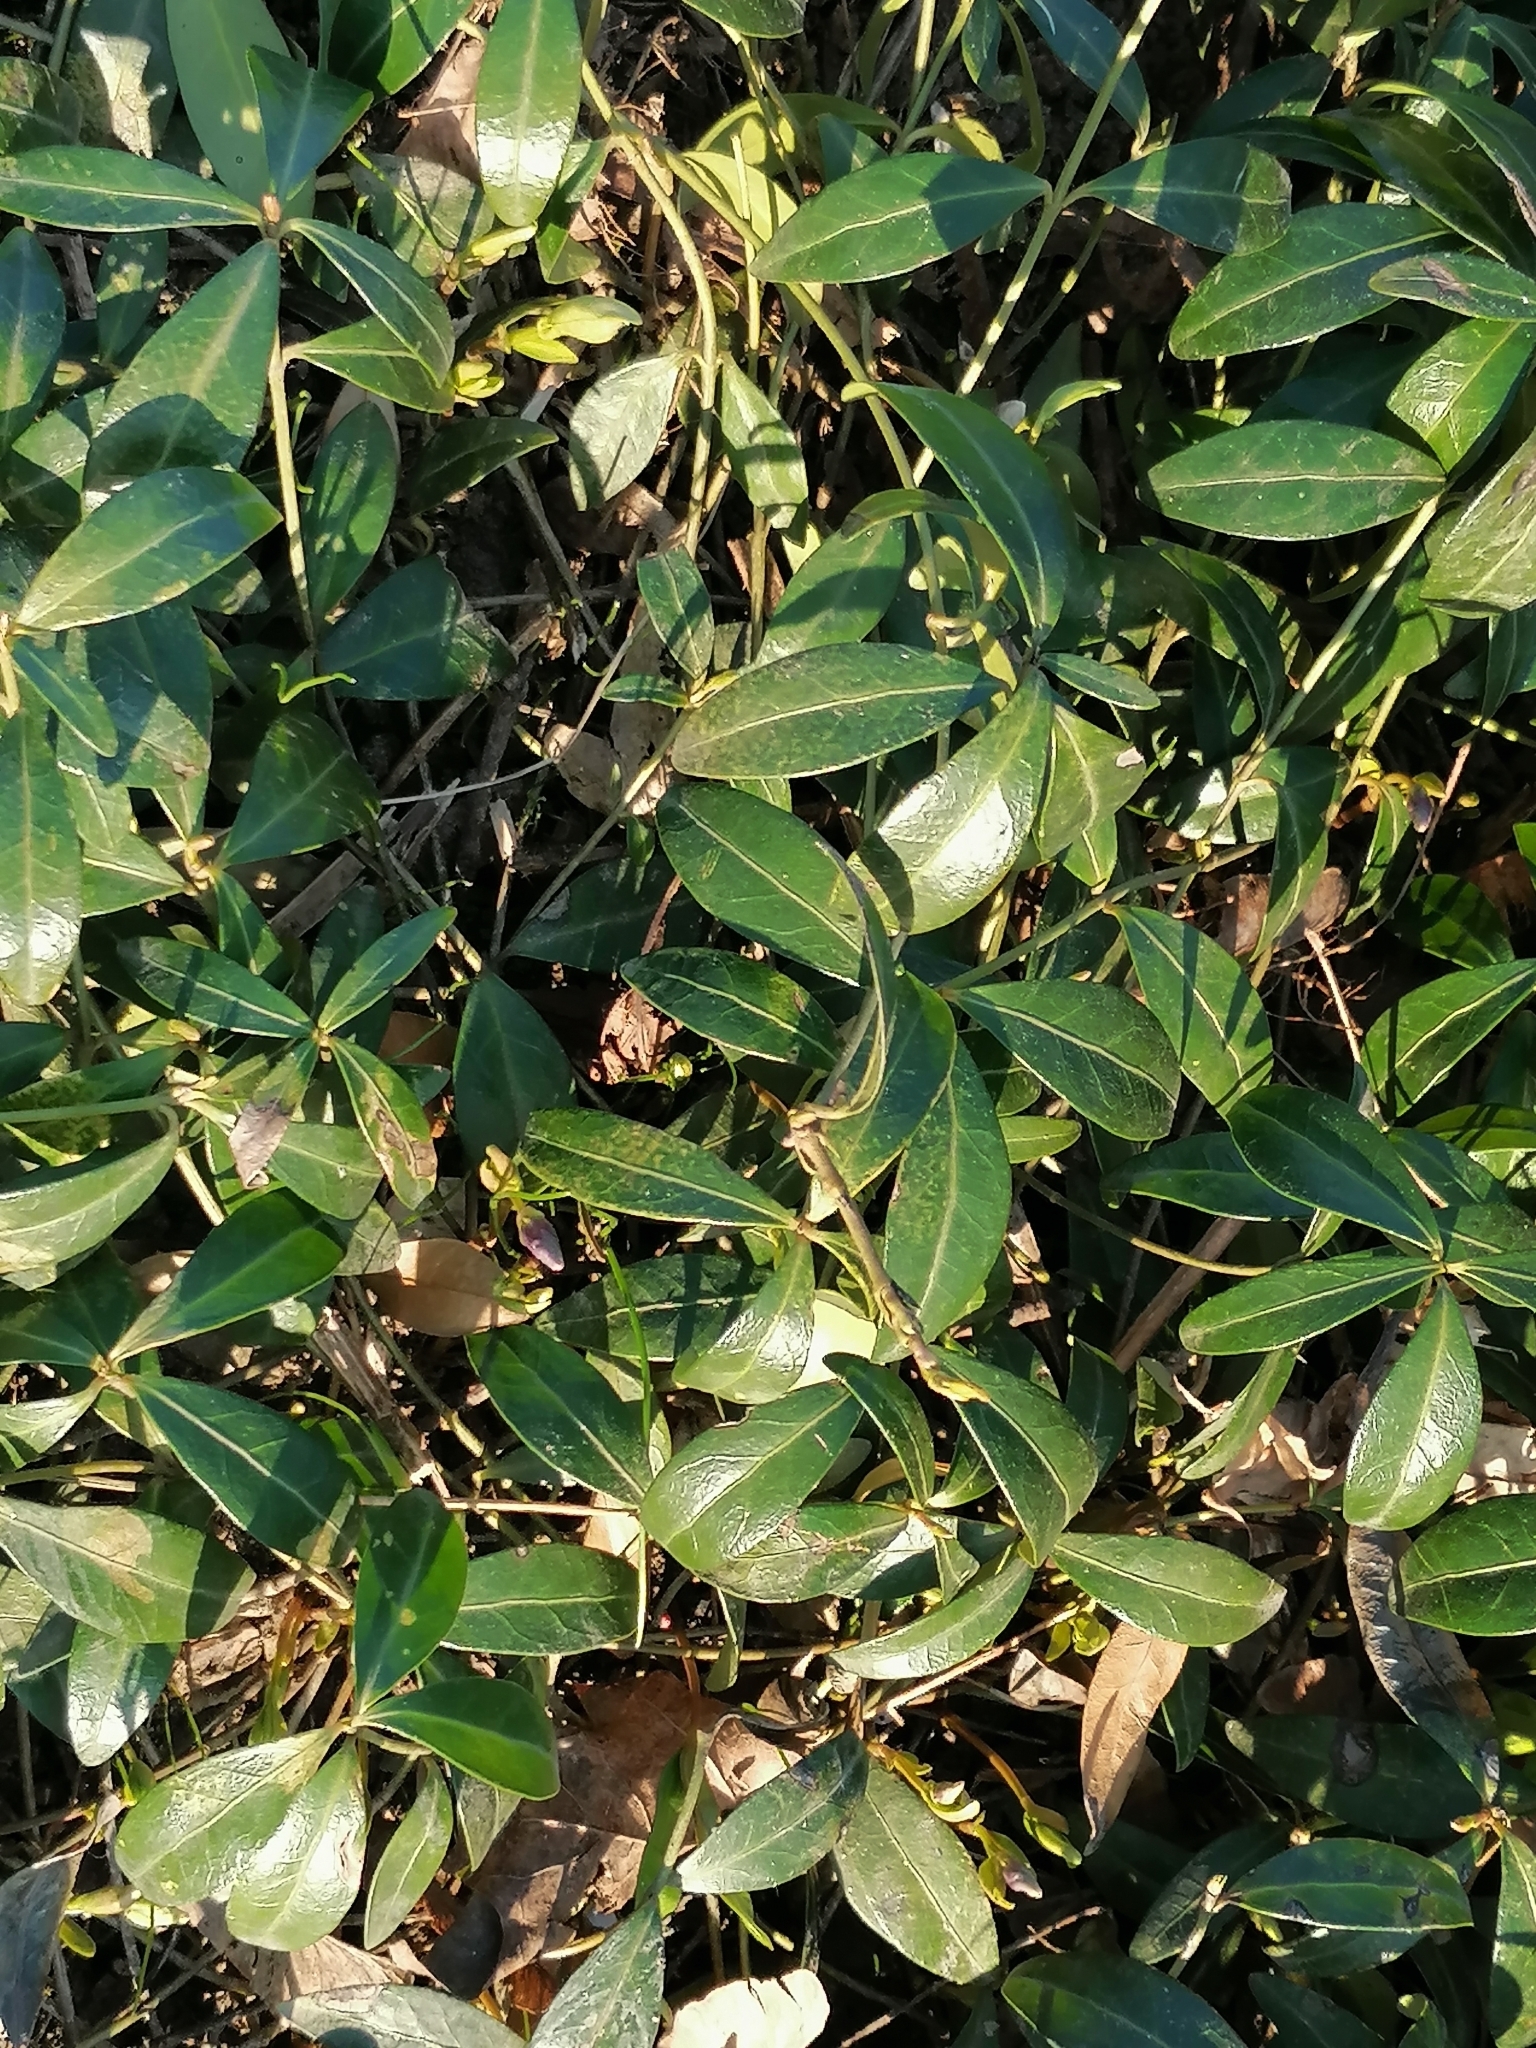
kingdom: Plantae
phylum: Tracheophyta
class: Magnoliopsida
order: Gentianales
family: Apocynaceae
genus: Vinca
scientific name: Vinca minor
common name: Lesser periwinkle
